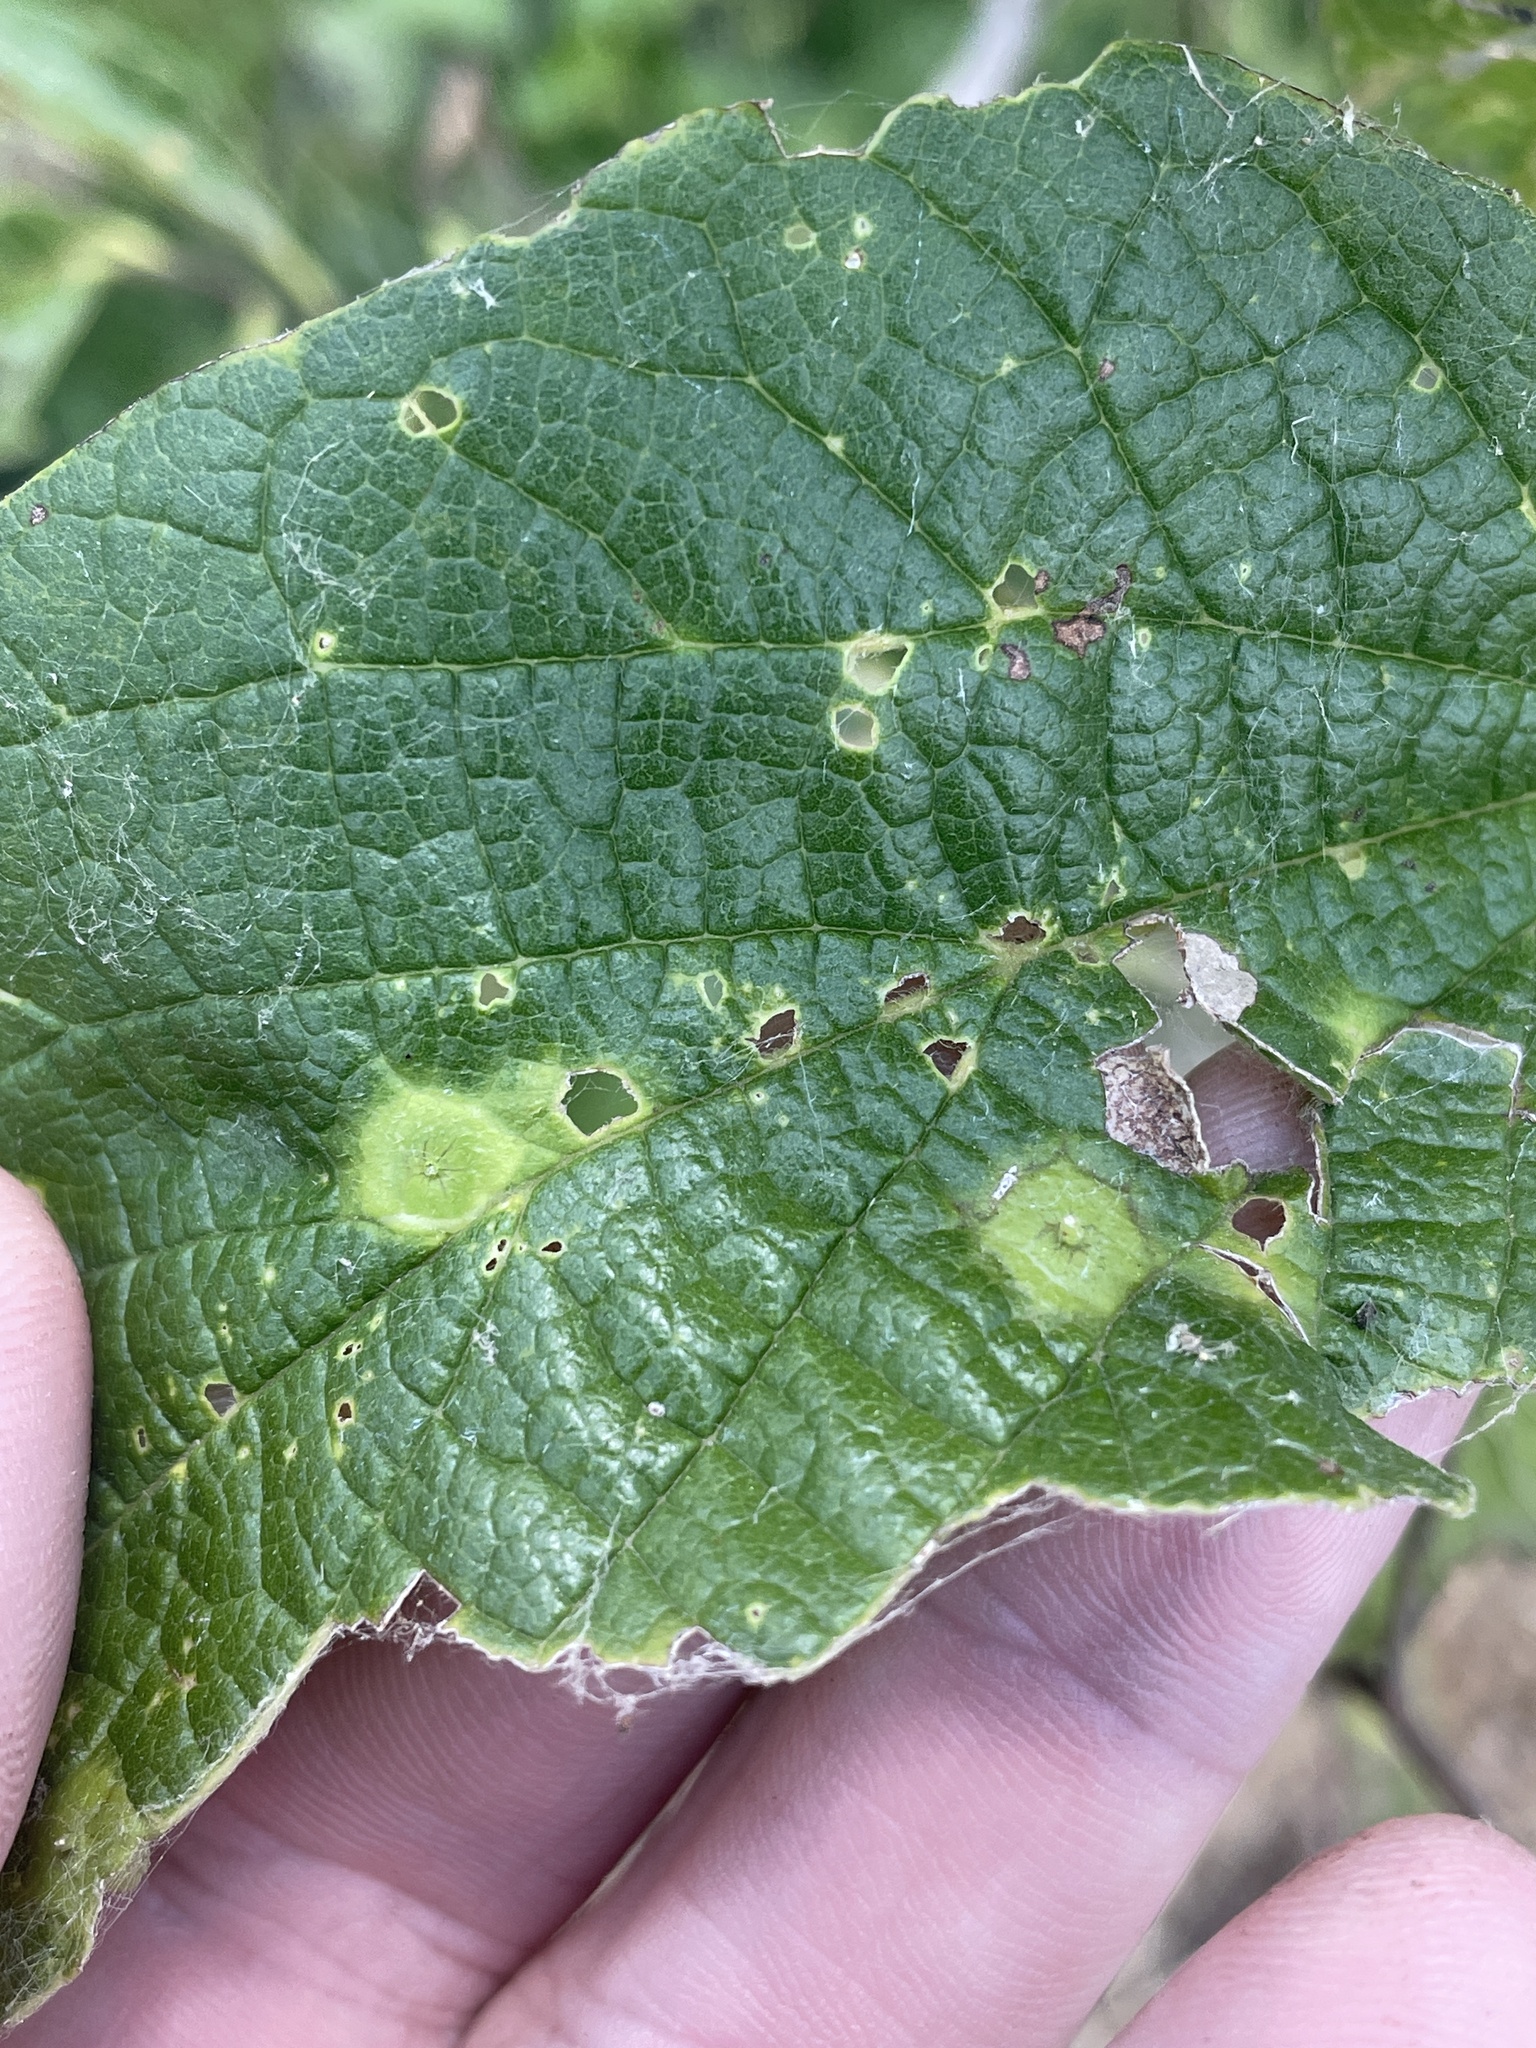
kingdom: Animalia
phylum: Arthropoda
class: Insecta
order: Hemiptera
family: Aphalaridae
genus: Pachypsylla
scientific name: Pachypsylla celtidisasterisca
